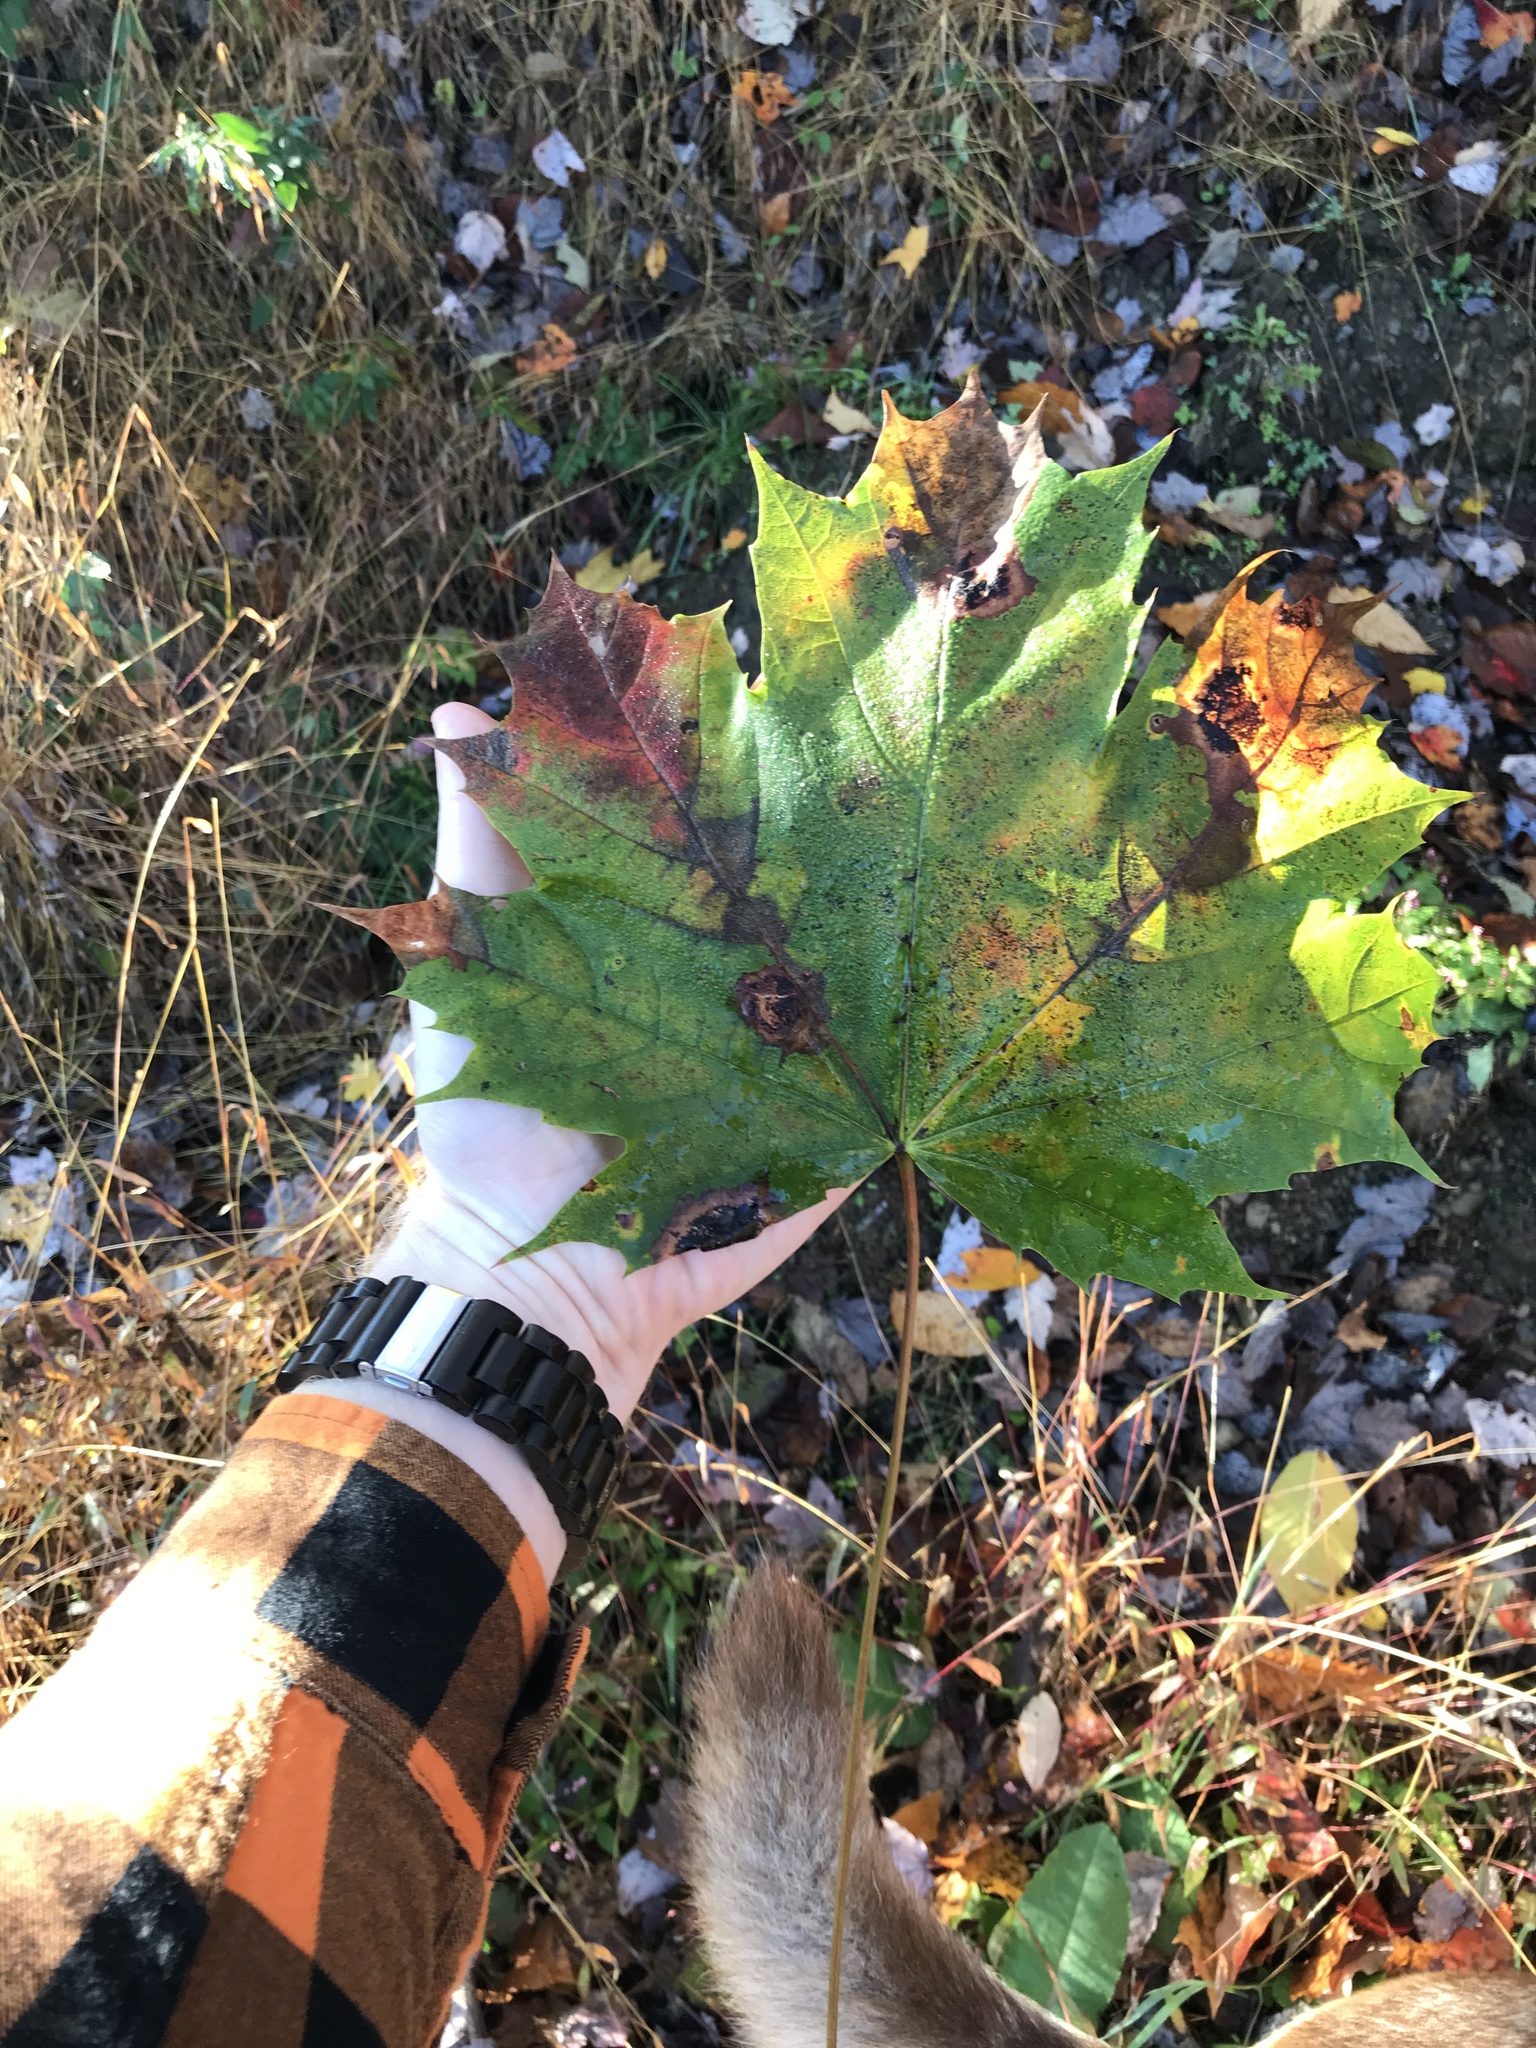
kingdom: Plantae
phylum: Tracheophyta
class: Magnoliopsida
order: Sapindales
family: Sapindaceae
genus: Acer
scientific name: Acer platanoides
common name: Norway maple
